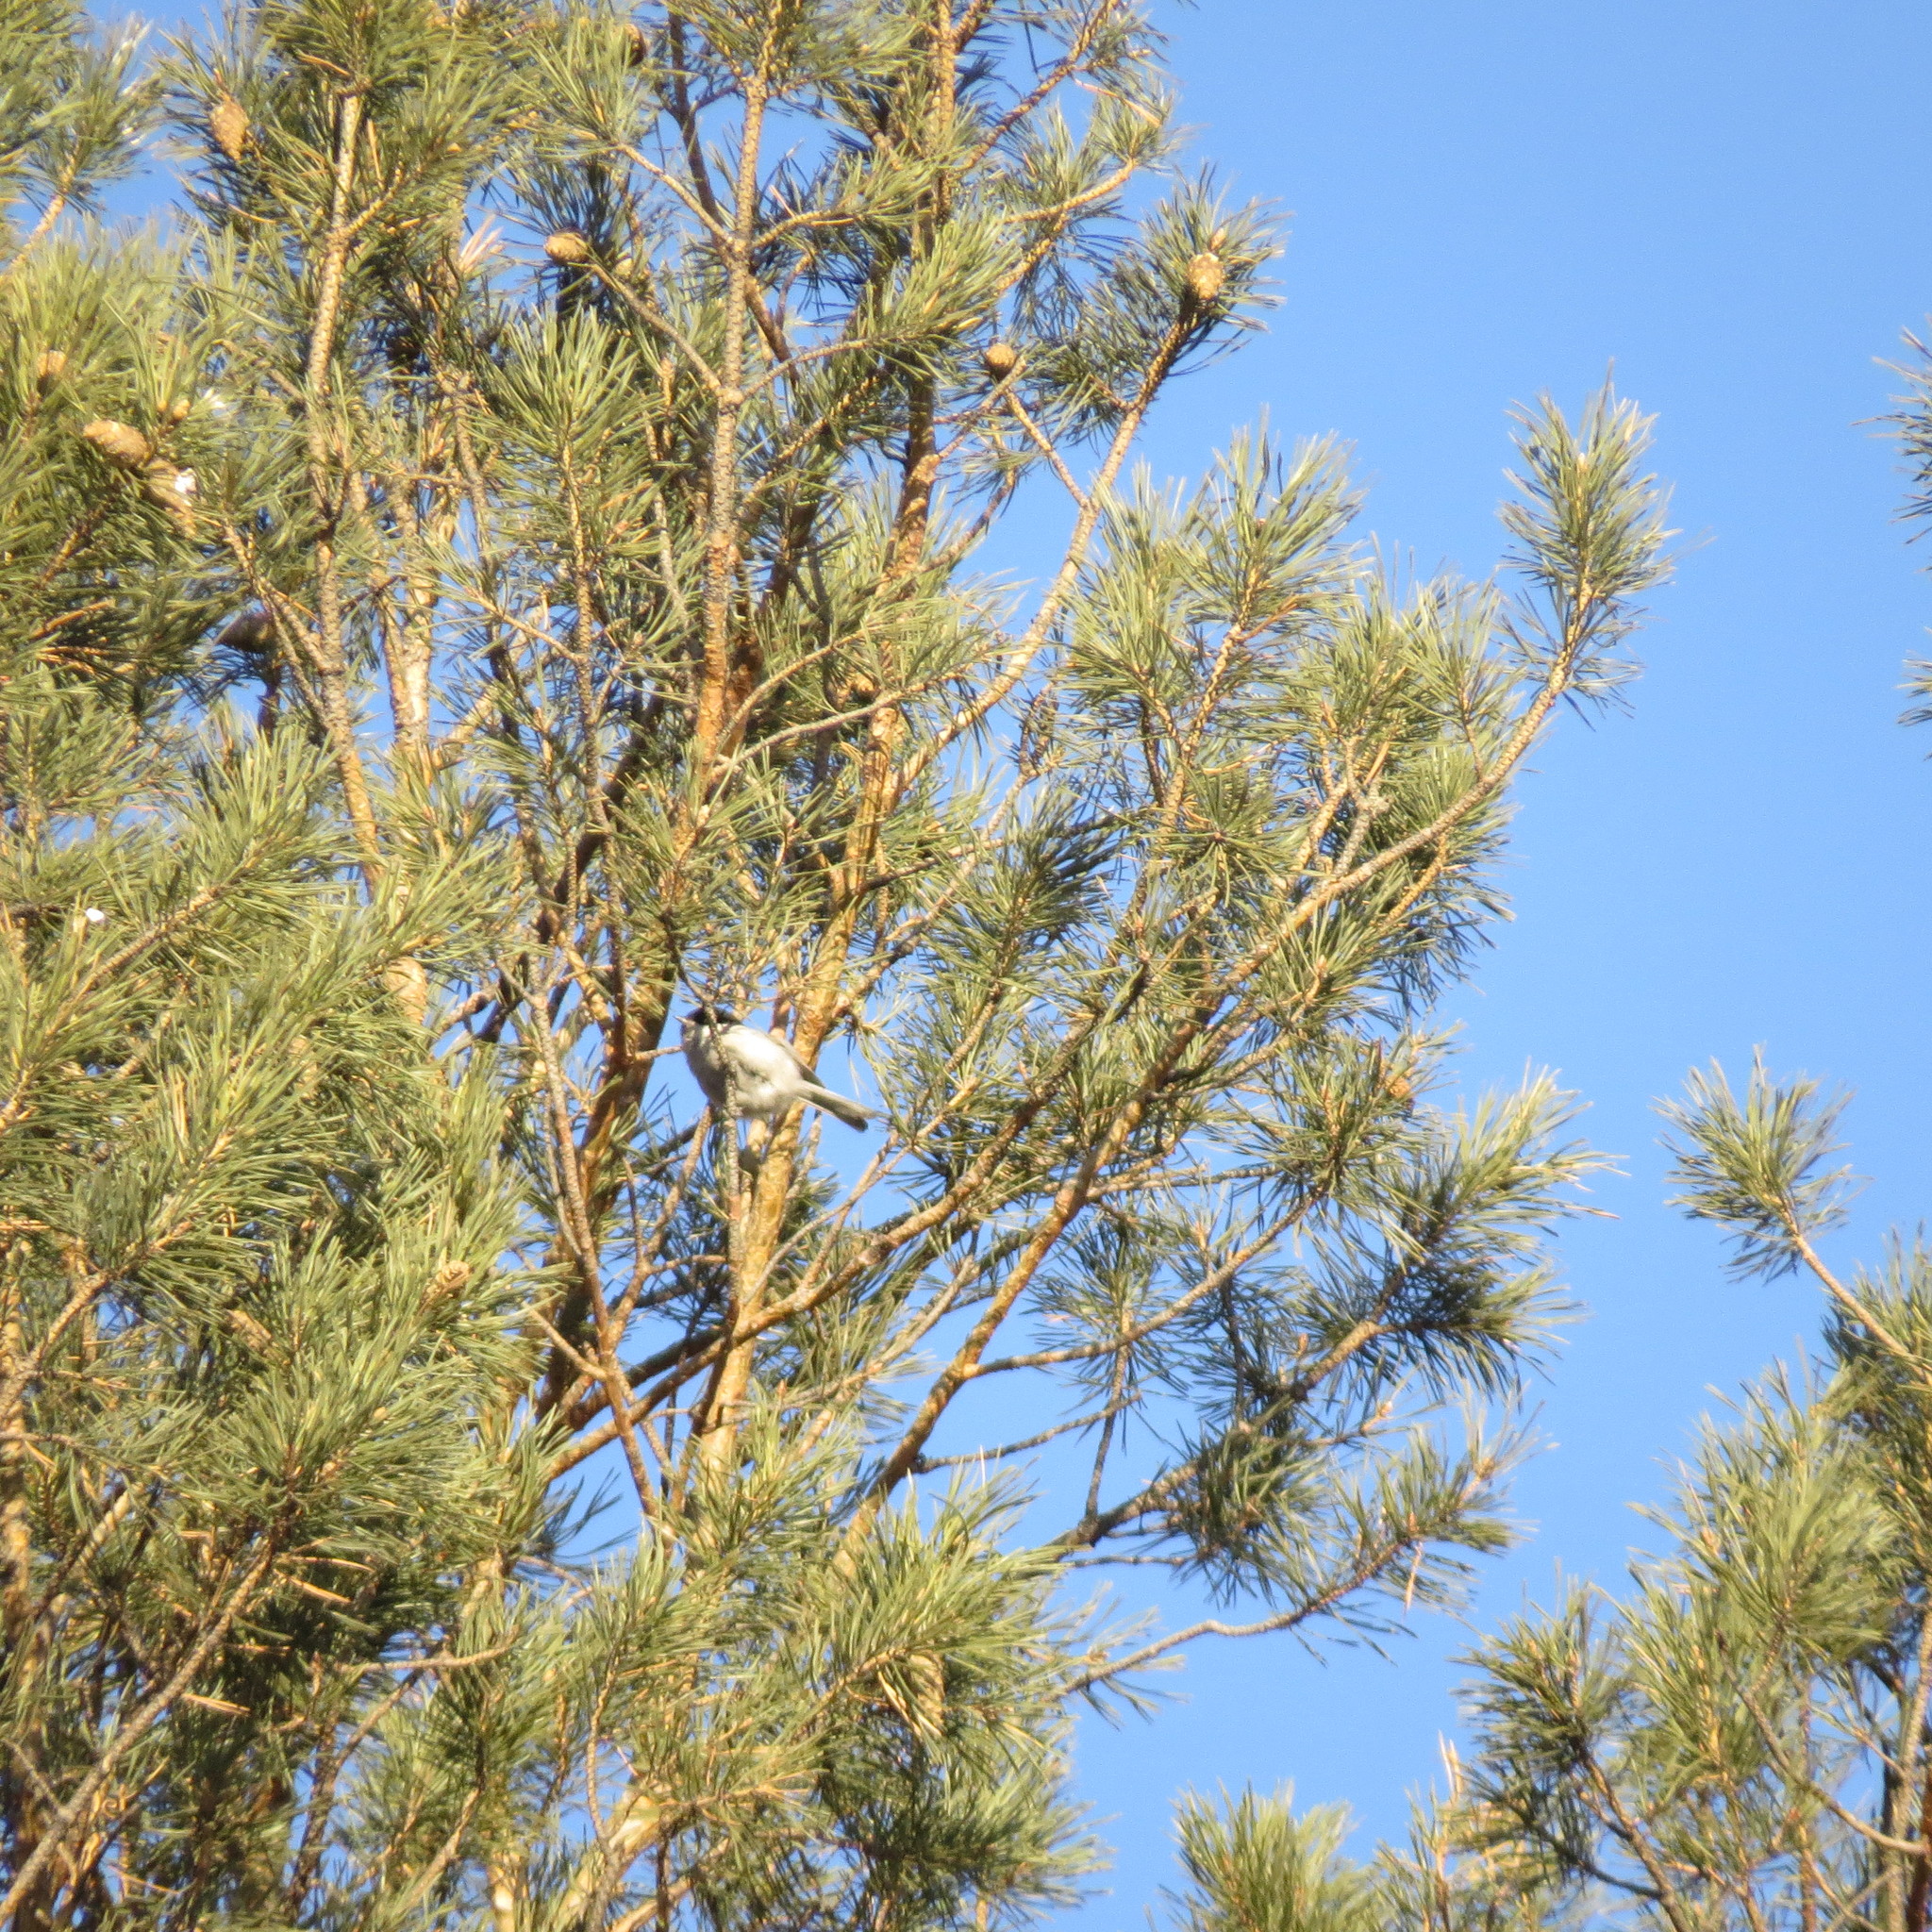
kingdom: Animalia
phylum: Chordata
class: Aves
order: Passeriformes
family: Paridae
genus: Poecile
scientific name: Poecile montanus
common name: Willow tit
